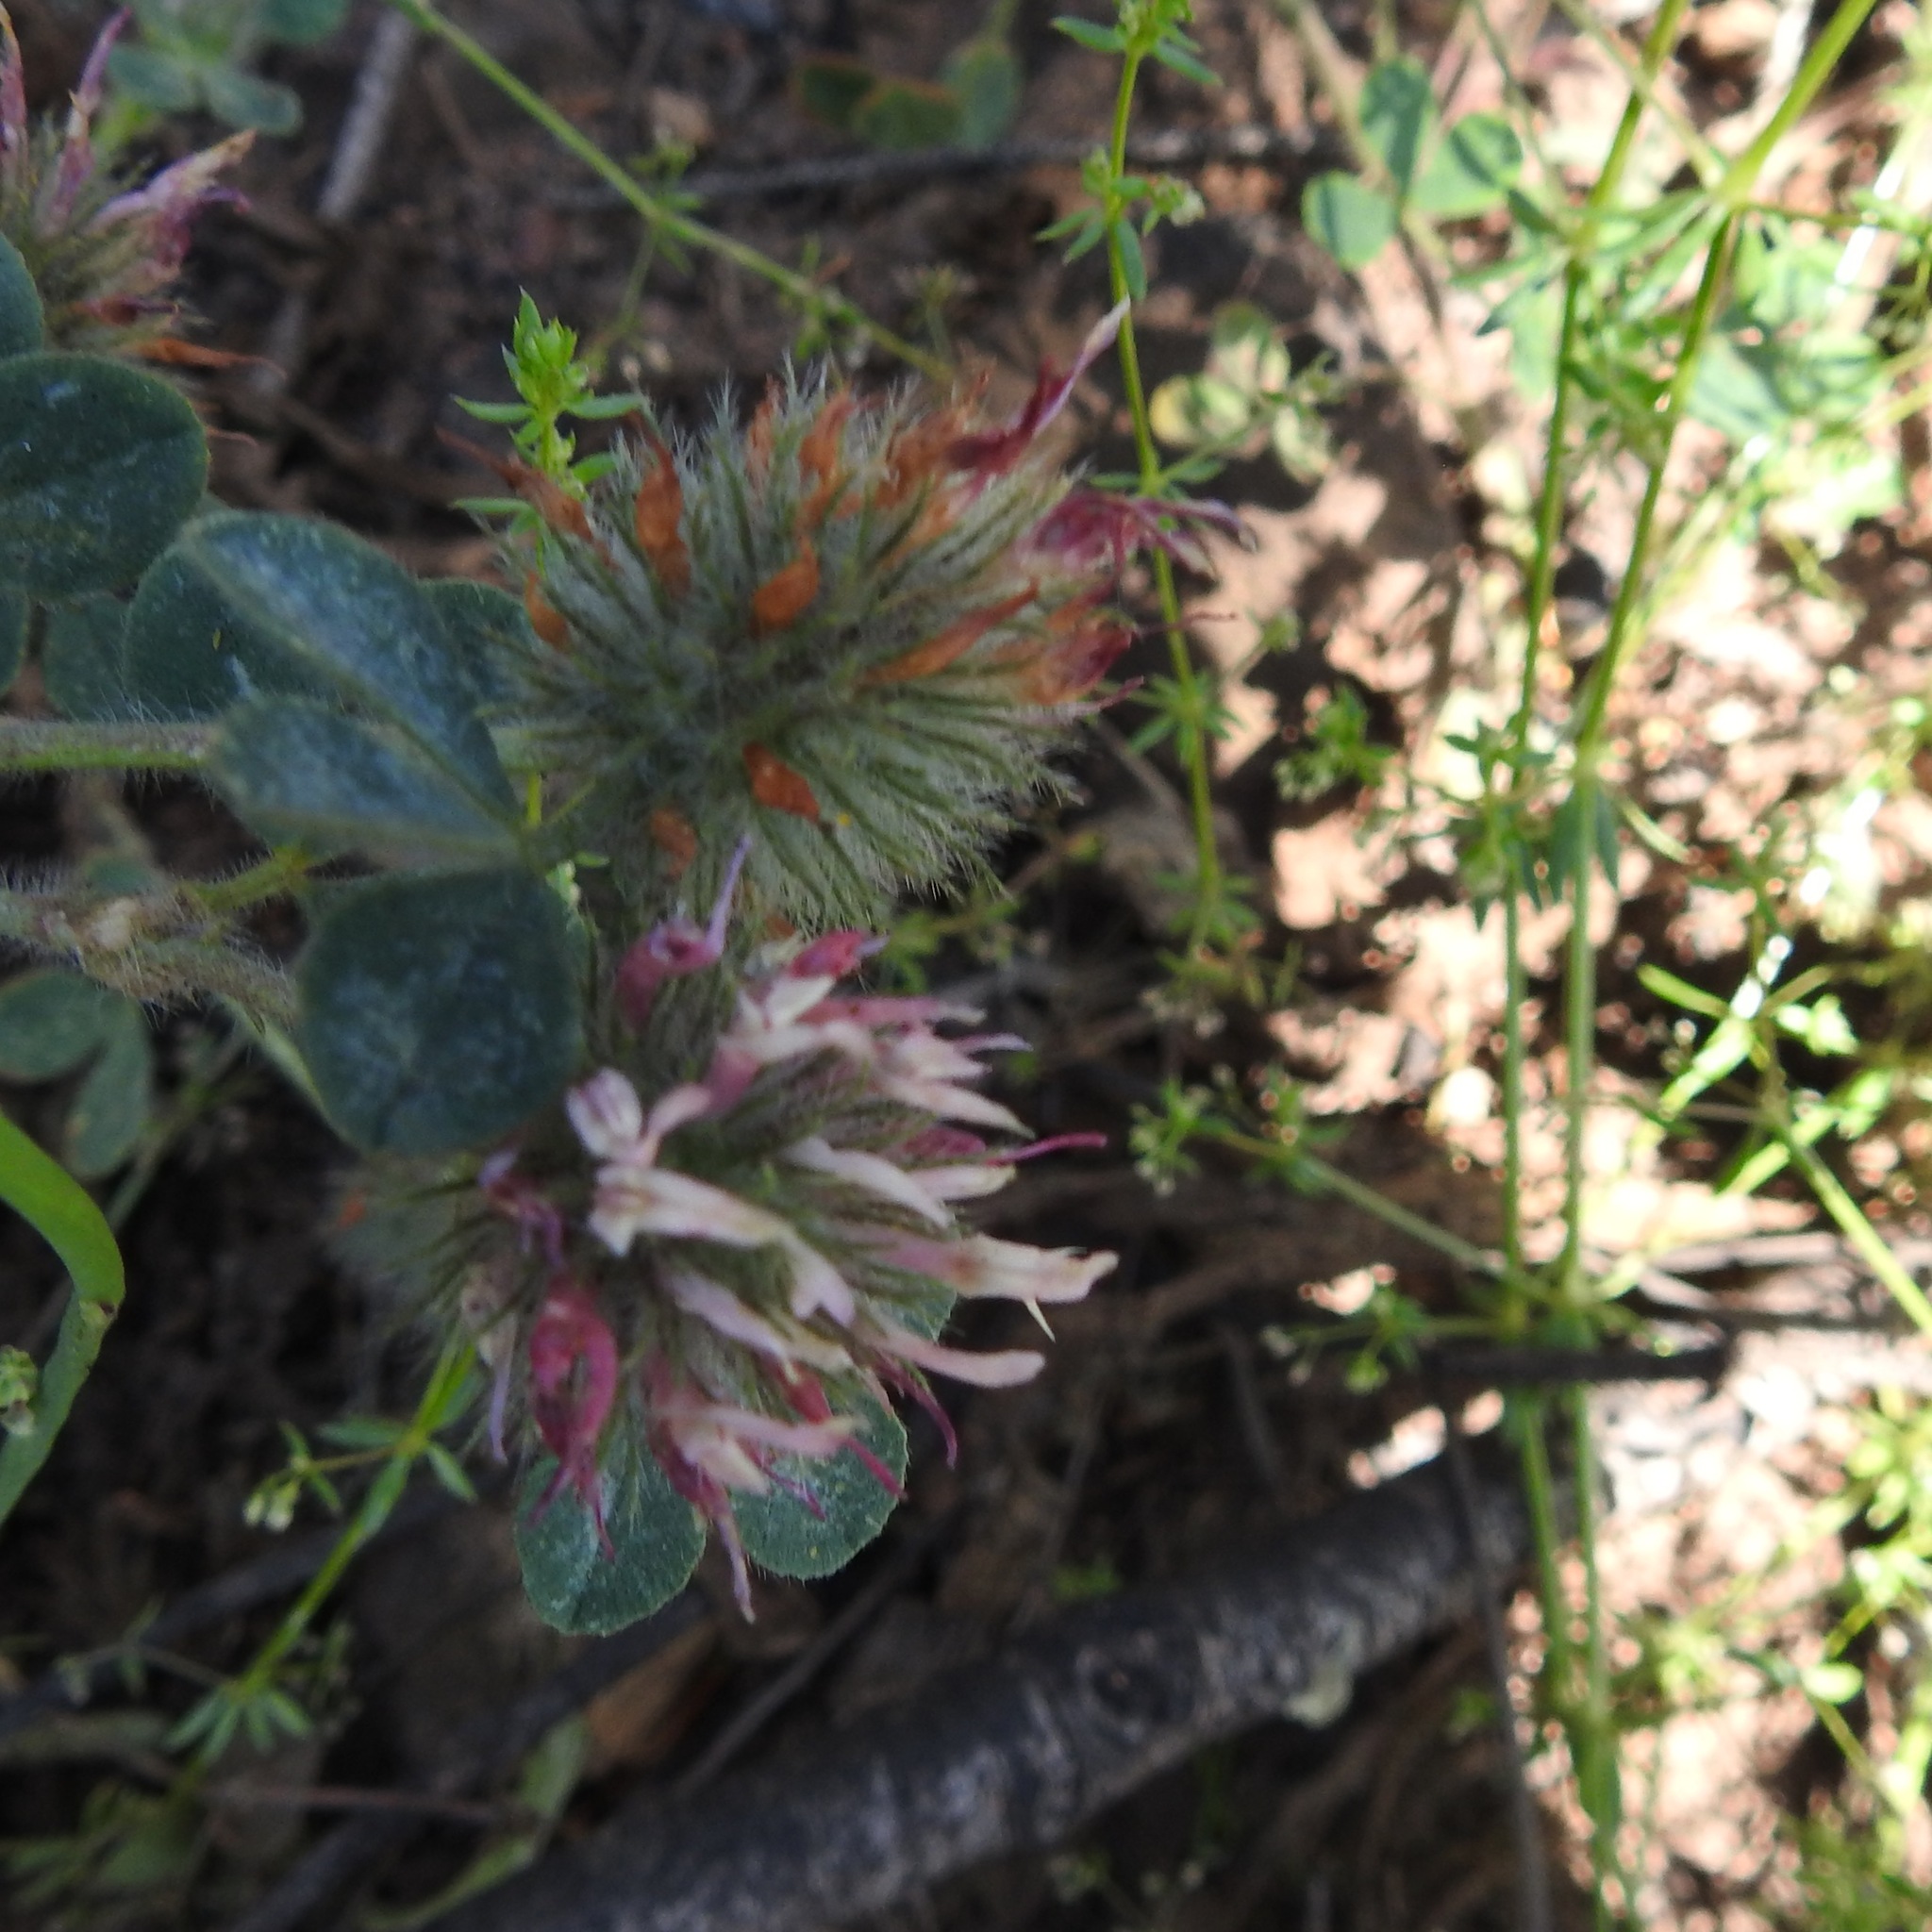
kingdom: Plantae
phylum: Tracheophyta
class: Magnoliopsida
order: Fabales
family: Fabaceae
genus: Trifolium
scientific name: Trifolium hirtum
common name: Rose clover
